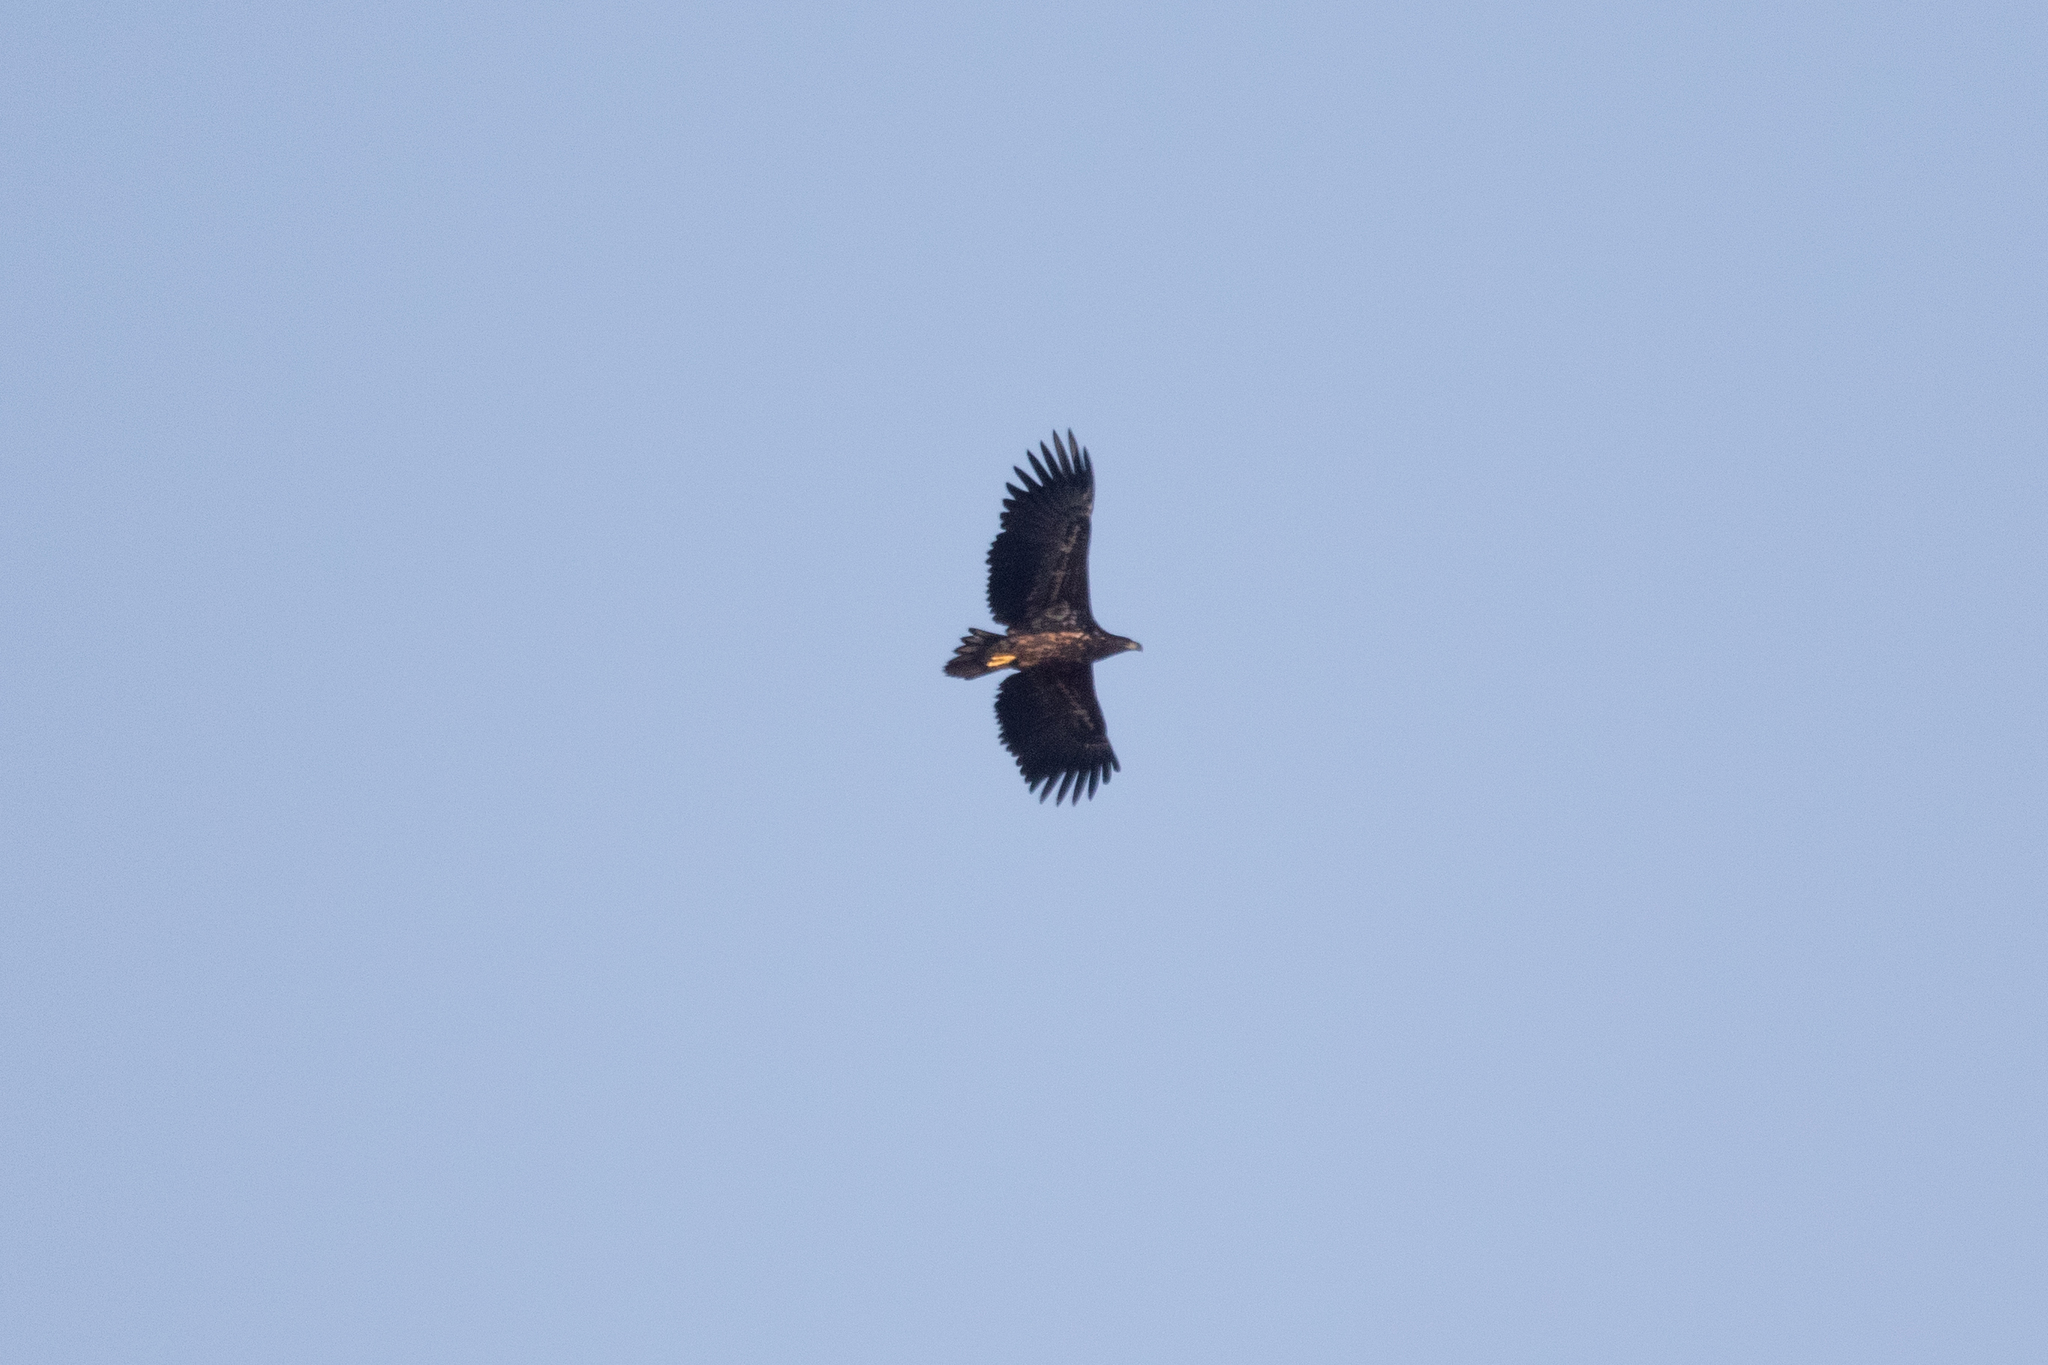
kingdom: Animalia
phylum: Chordata
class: Aves
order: Accipitriformes
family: Accipitridae
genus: Haliaeetus
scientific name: Haliaeetus albicilla
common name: White-tailed eagle
